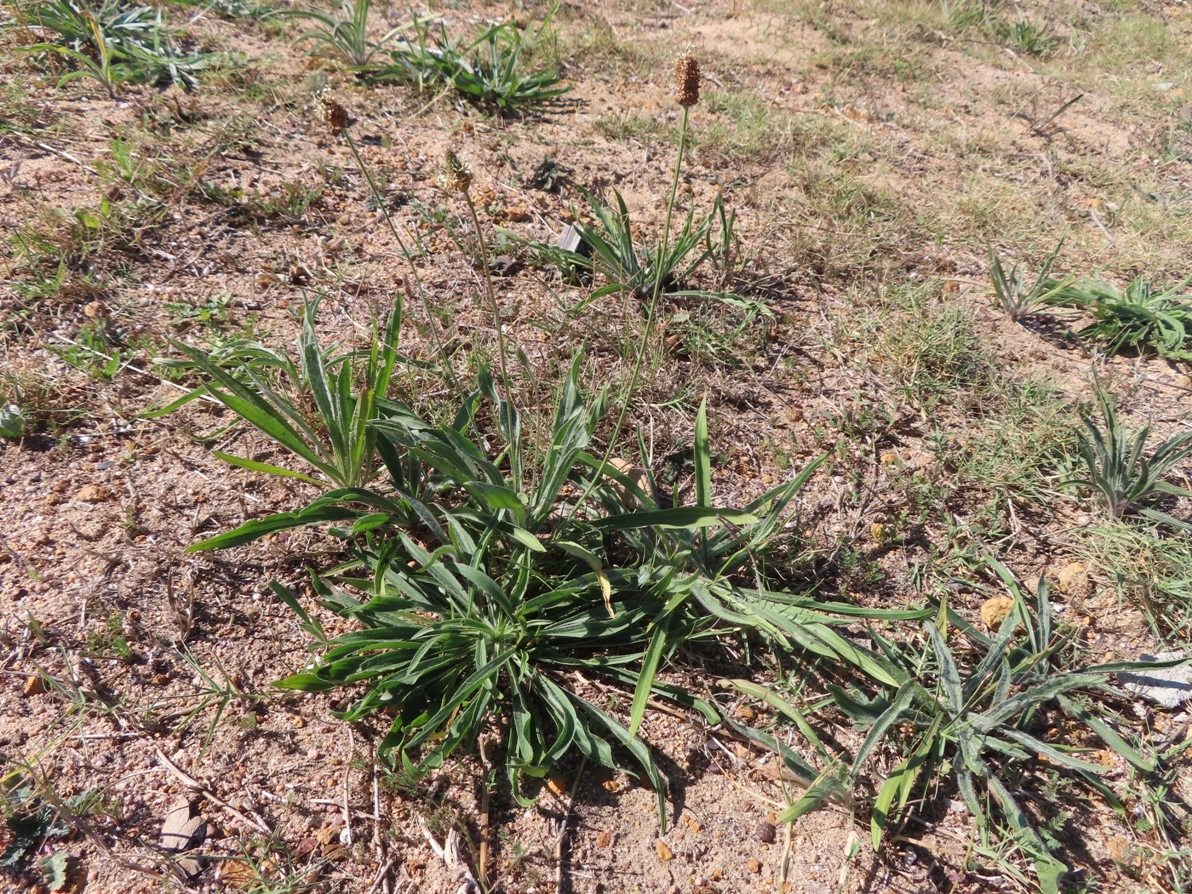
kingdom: Plantae
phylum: Tracheophyta
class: Magnoliopsida
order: Lamiales
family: Plantaginaceae
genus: Plantago
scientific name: Plantago lanceolata
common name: Ribwort plantain
